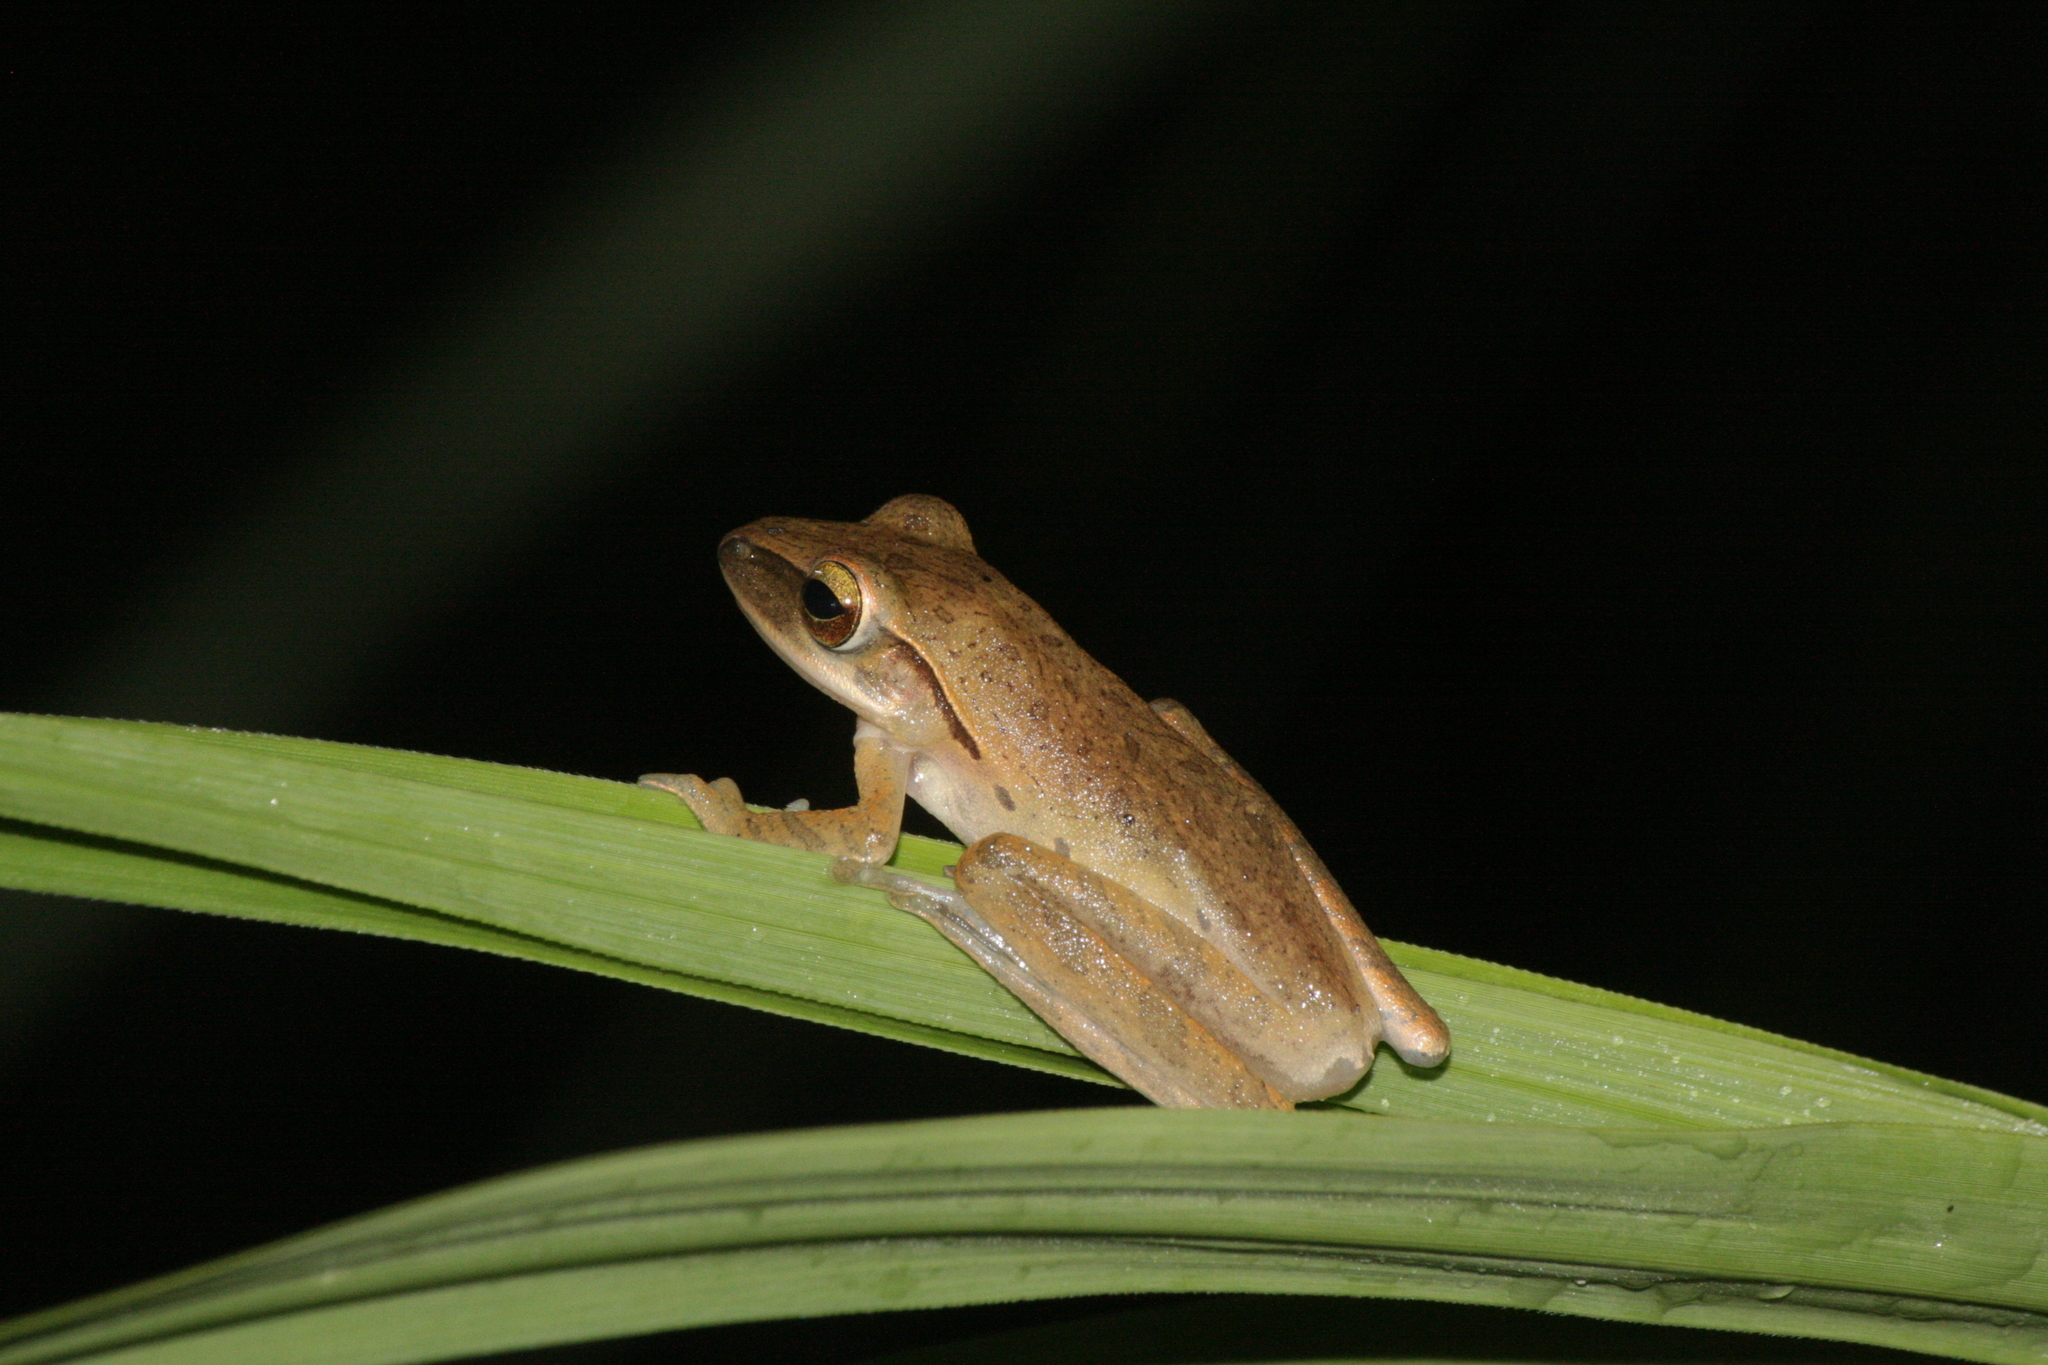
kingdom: Animalia
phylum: Chordata
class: Amphibia
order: Anura
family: Rhacophoridae
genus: Polypedates
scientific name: Polypedates leucomystax
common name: Common tree frog/four-lined tree frog
